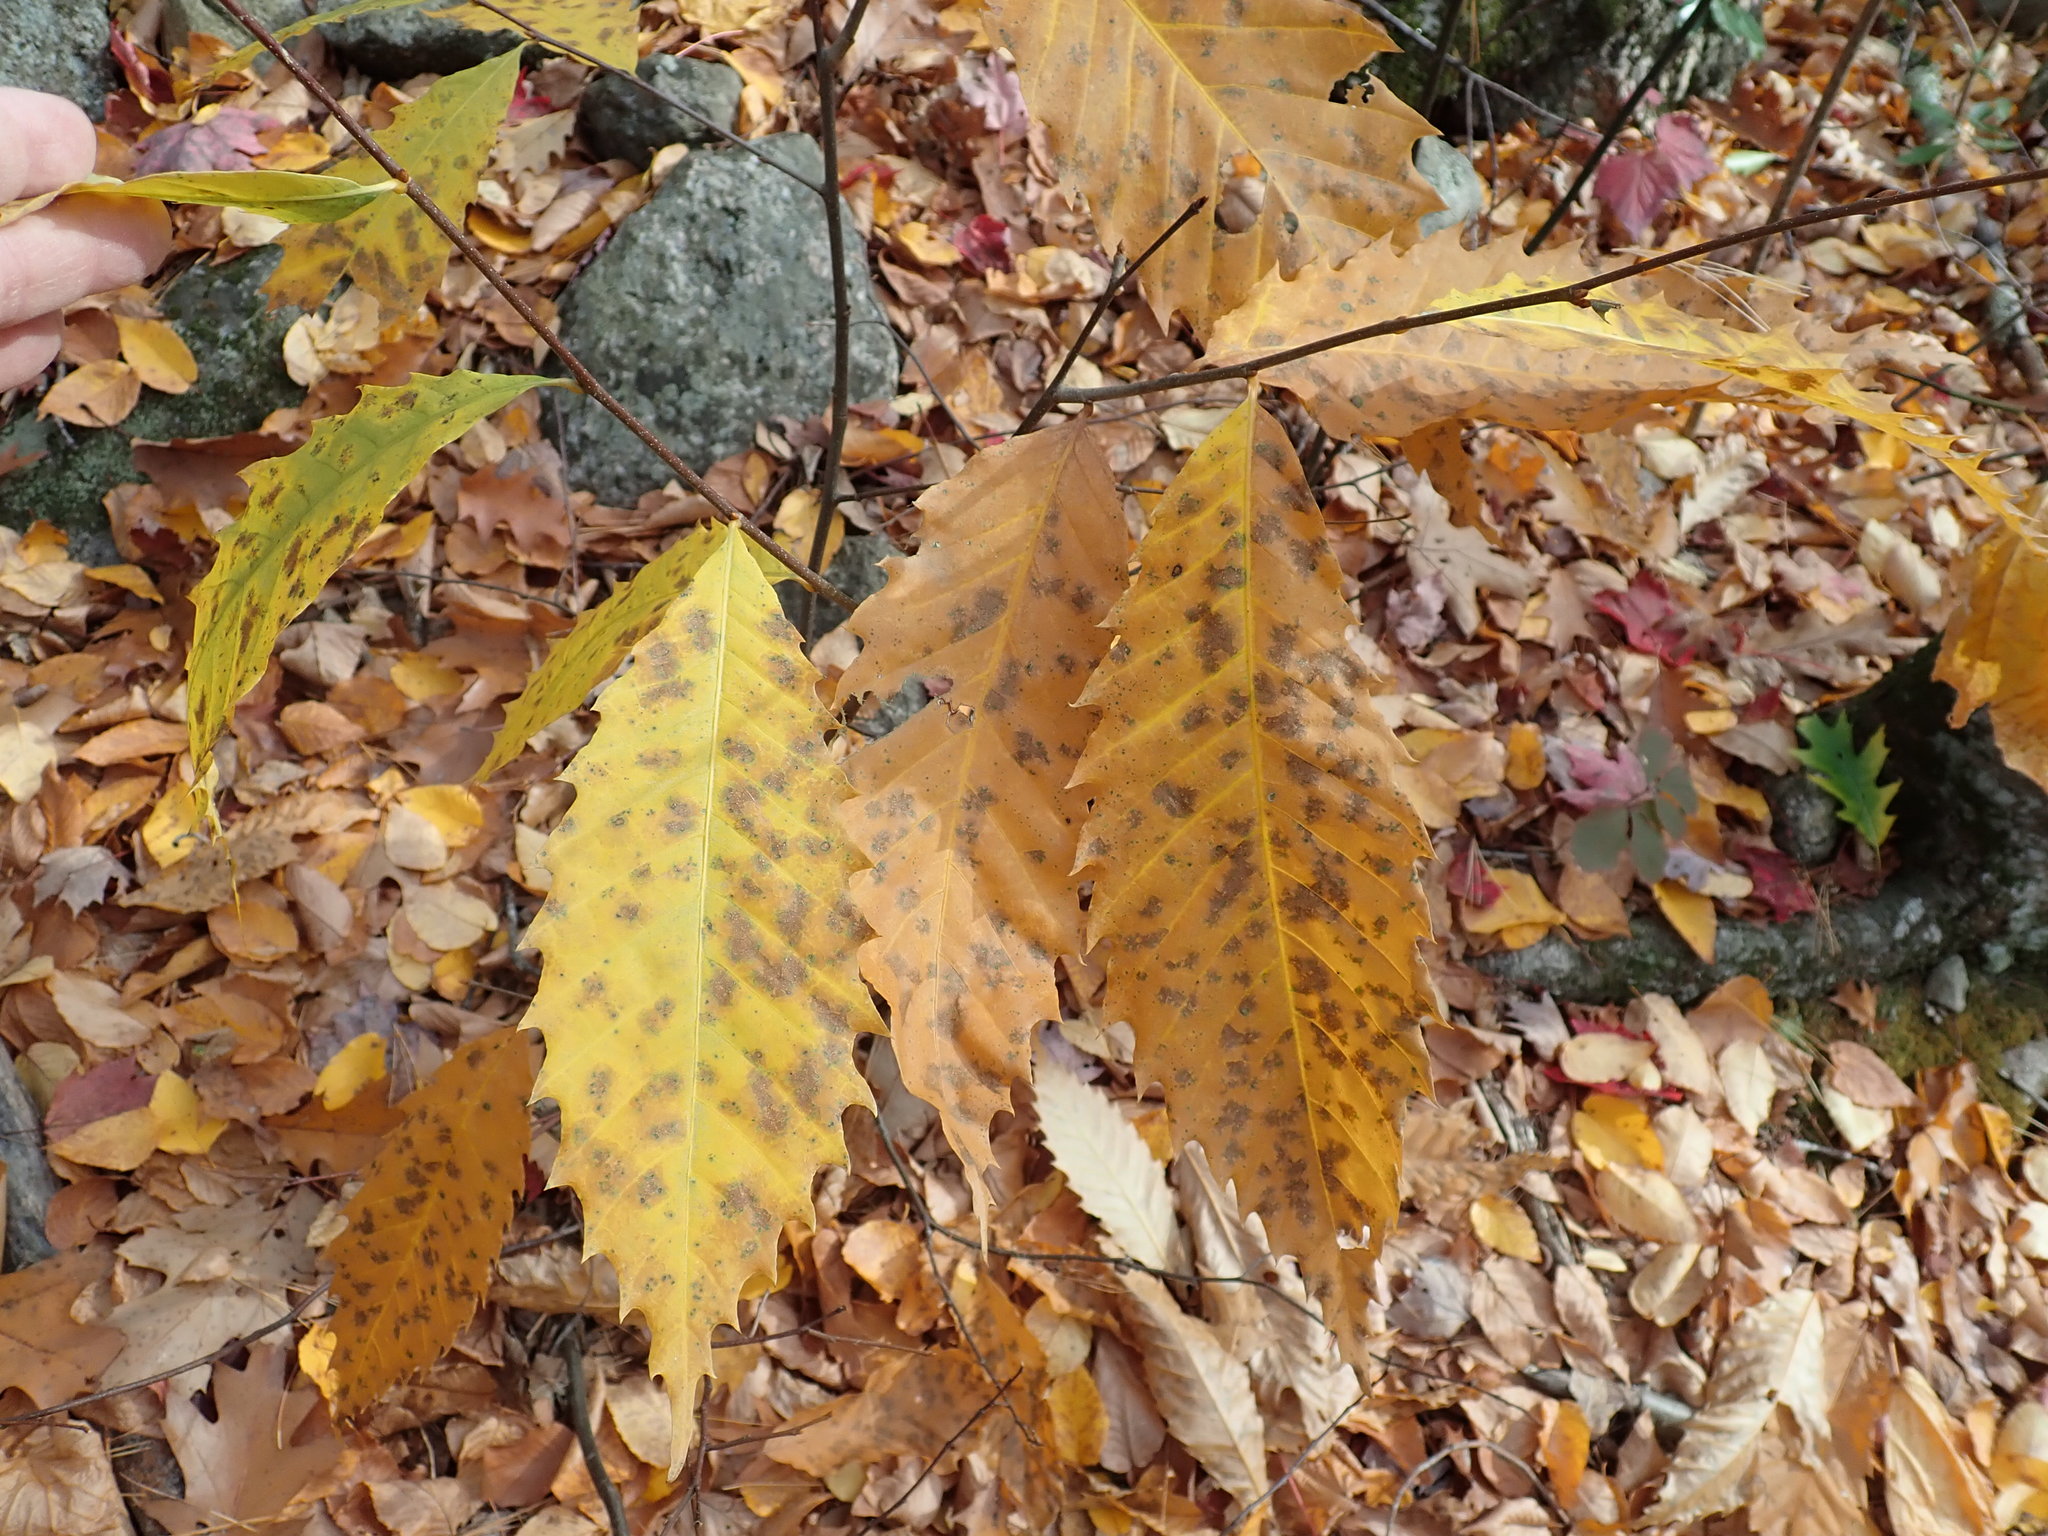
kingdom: Plantae
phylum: Tracheophyta
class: Magnoliopsida
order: Fagales
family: Fagaceae
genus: Castanea
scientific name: Castanea dentata
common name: American chestnut
